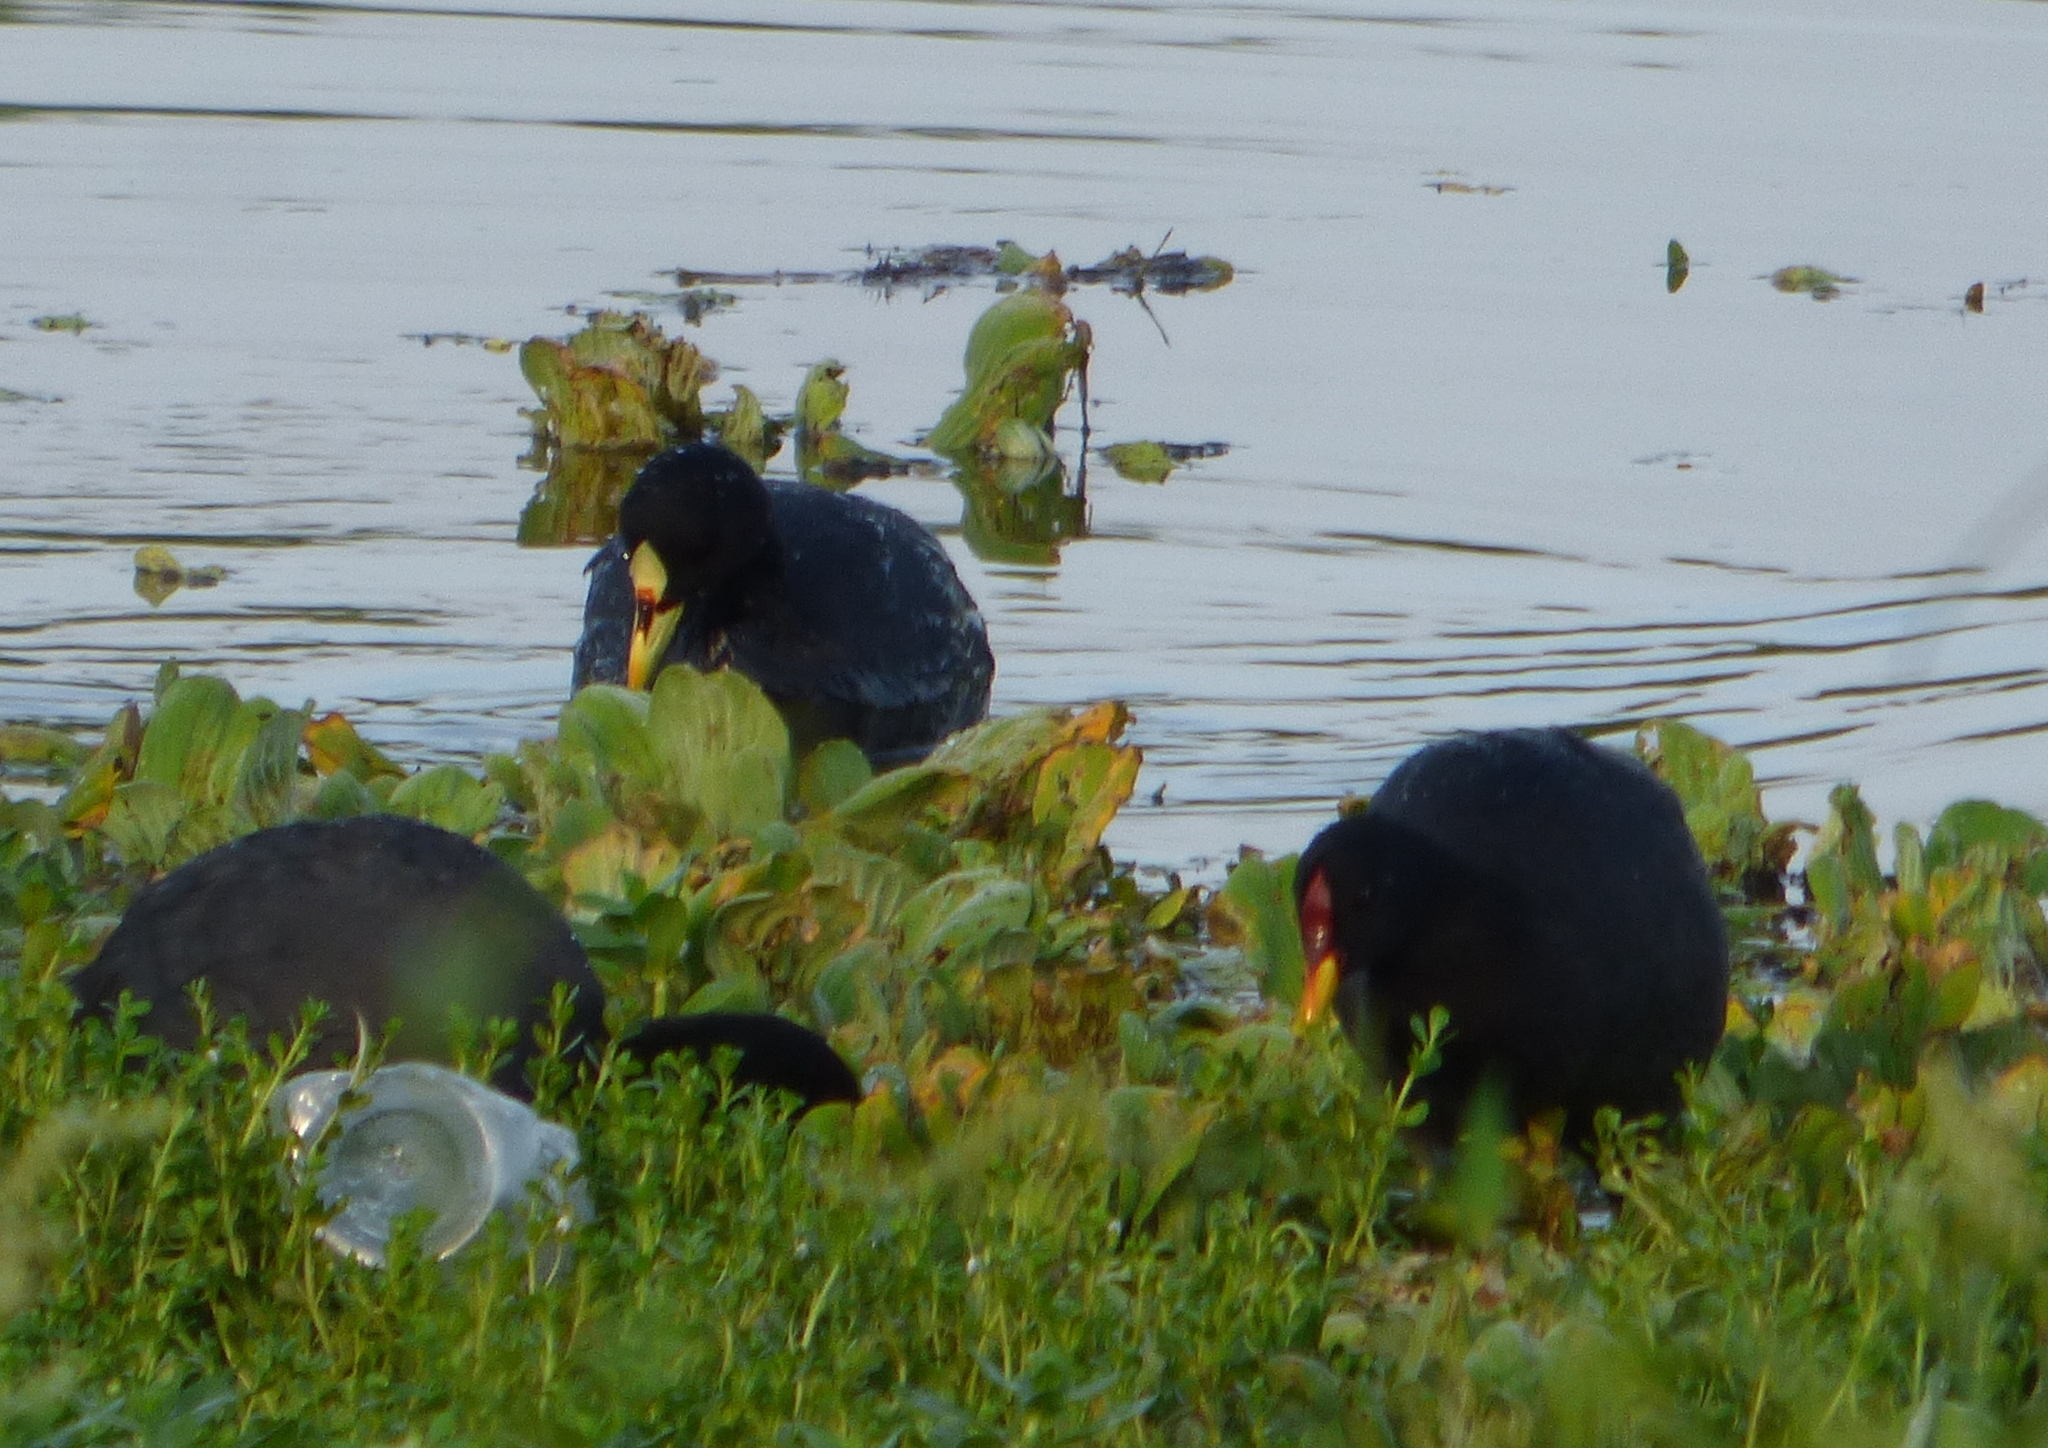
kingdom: Animalia
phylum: Chordata
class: Aves
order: Gruiformes
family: Rallidae
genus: Fulica
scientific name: Fulica rufifrons
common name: Red-fronted coot
